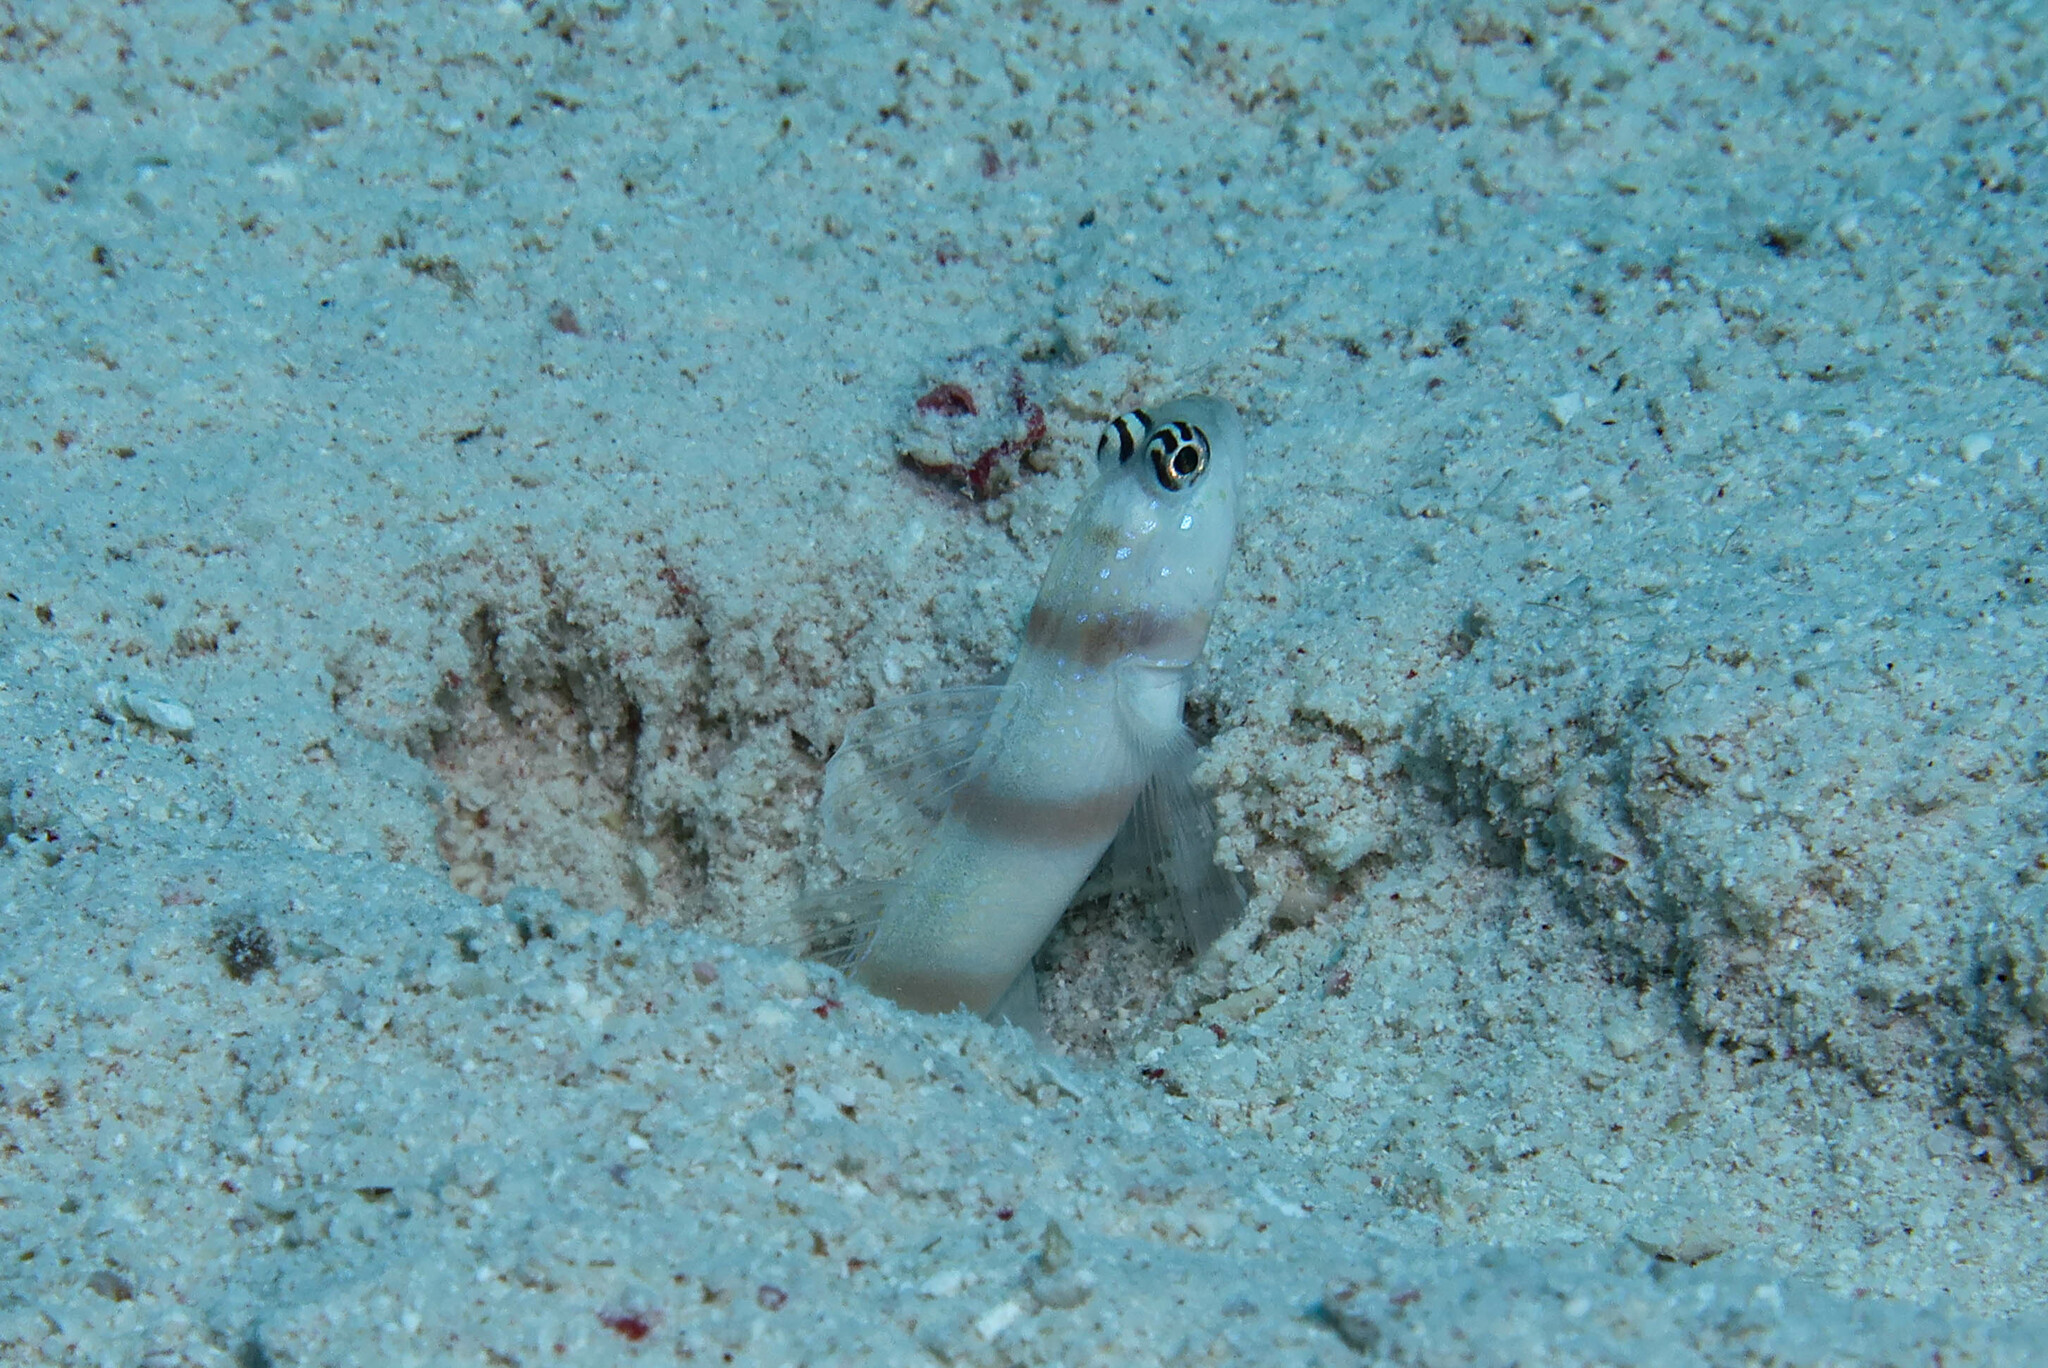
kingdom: Animalia
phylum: Chordata
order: Perciformes
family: Gobiidae
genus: Amblyeleotris
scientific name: Amblyeleotris steinitzi
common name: Steinitz' prawn-goby
